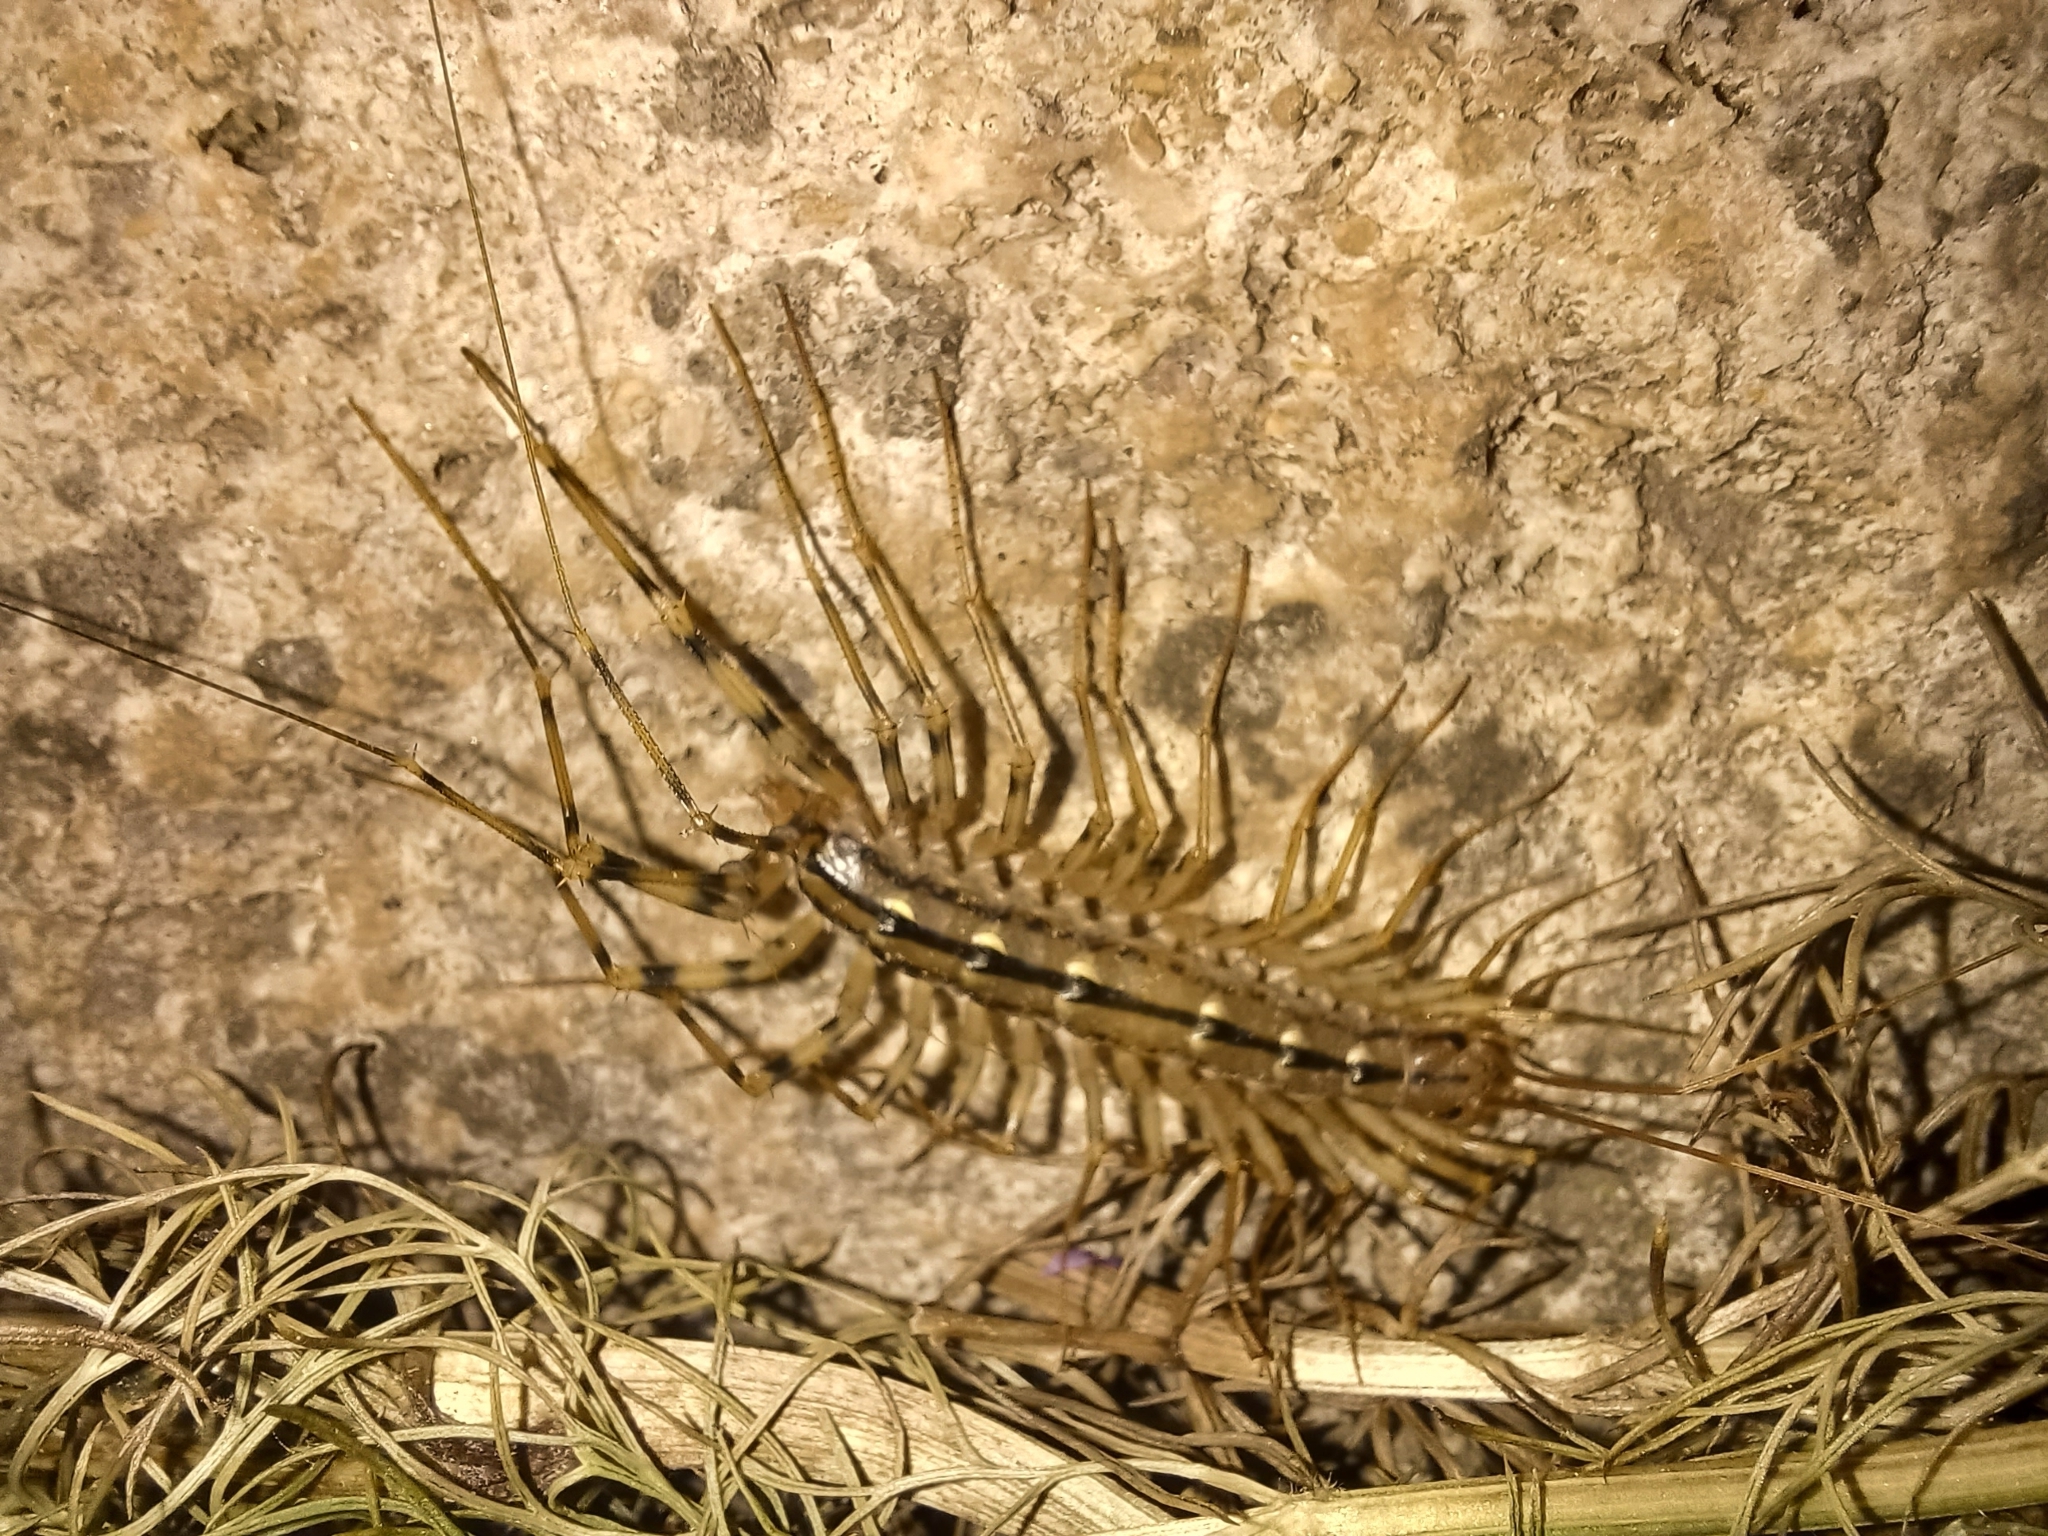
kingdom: Animalia
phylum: Arthropoda
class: Chilopoda
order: Scutigeromorpha
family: Scutigeridae
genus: Scutigera
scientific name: Scutigera coleoptrata
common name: House centipede
